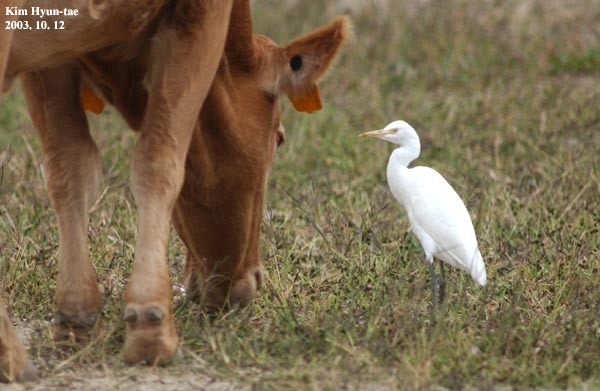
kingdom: Animalia
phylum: Chordata
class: Aves
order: Pelecaniformes
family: Ardeidae
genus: Bubulcus
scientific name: Bubulcus coromandus
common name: Eastern cattle egret
